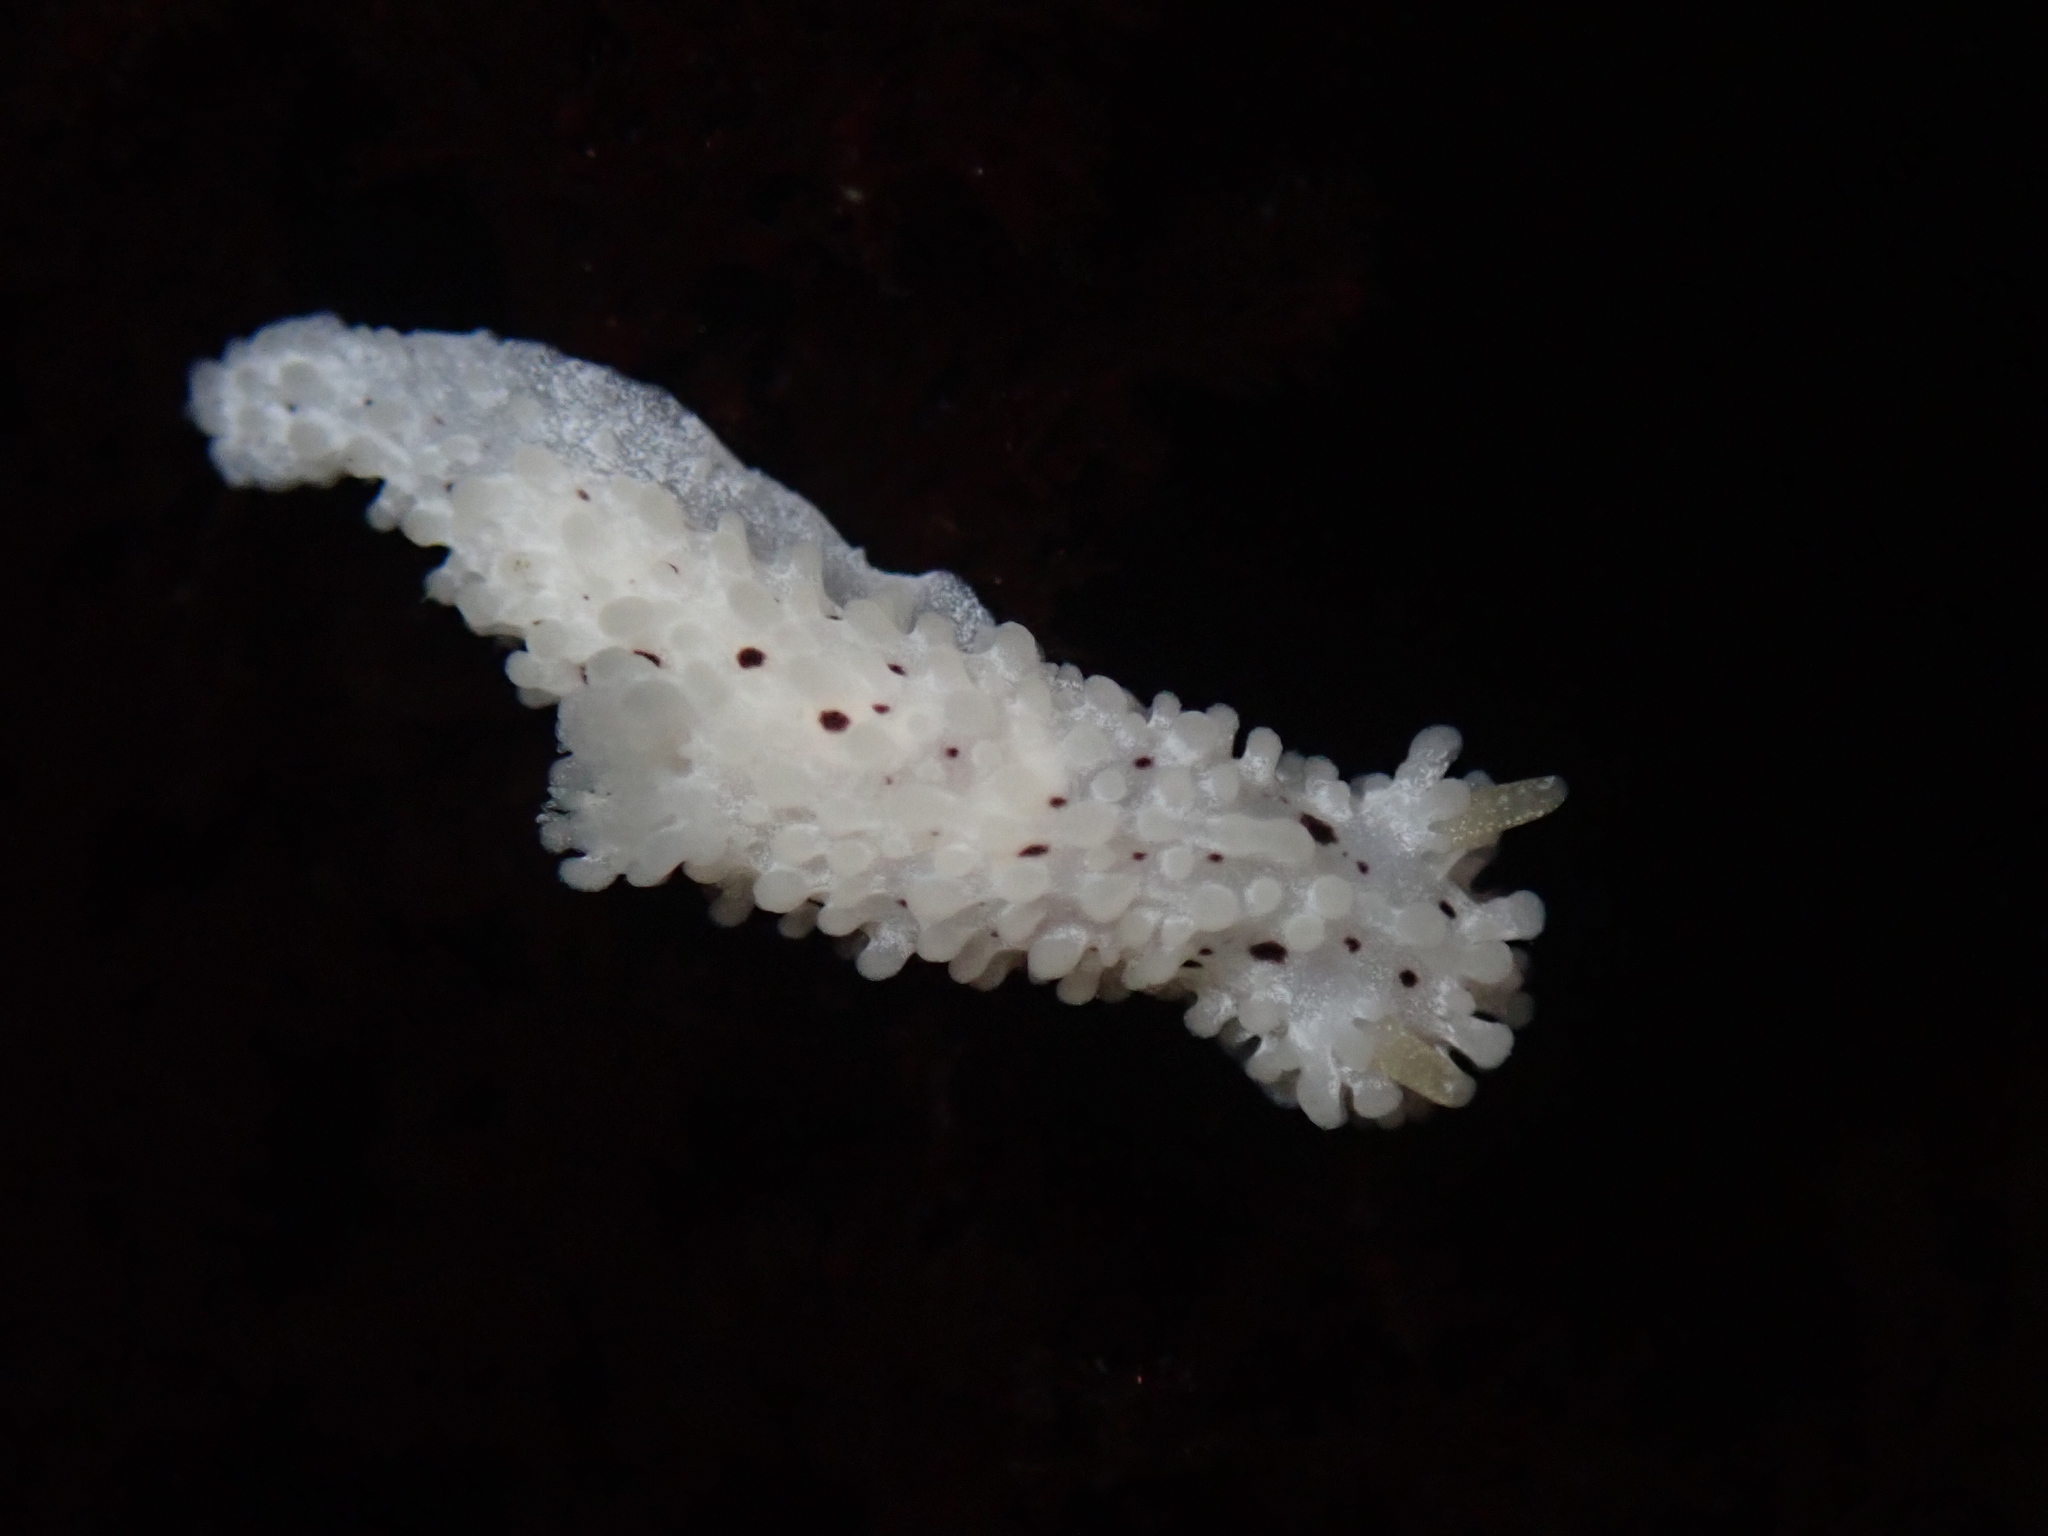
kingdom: Animalia
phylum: Mollusca
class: Gastropoda
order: Nudibranchia
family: Aegiridae
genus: Aegires
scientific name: Aegires albopunctatus
